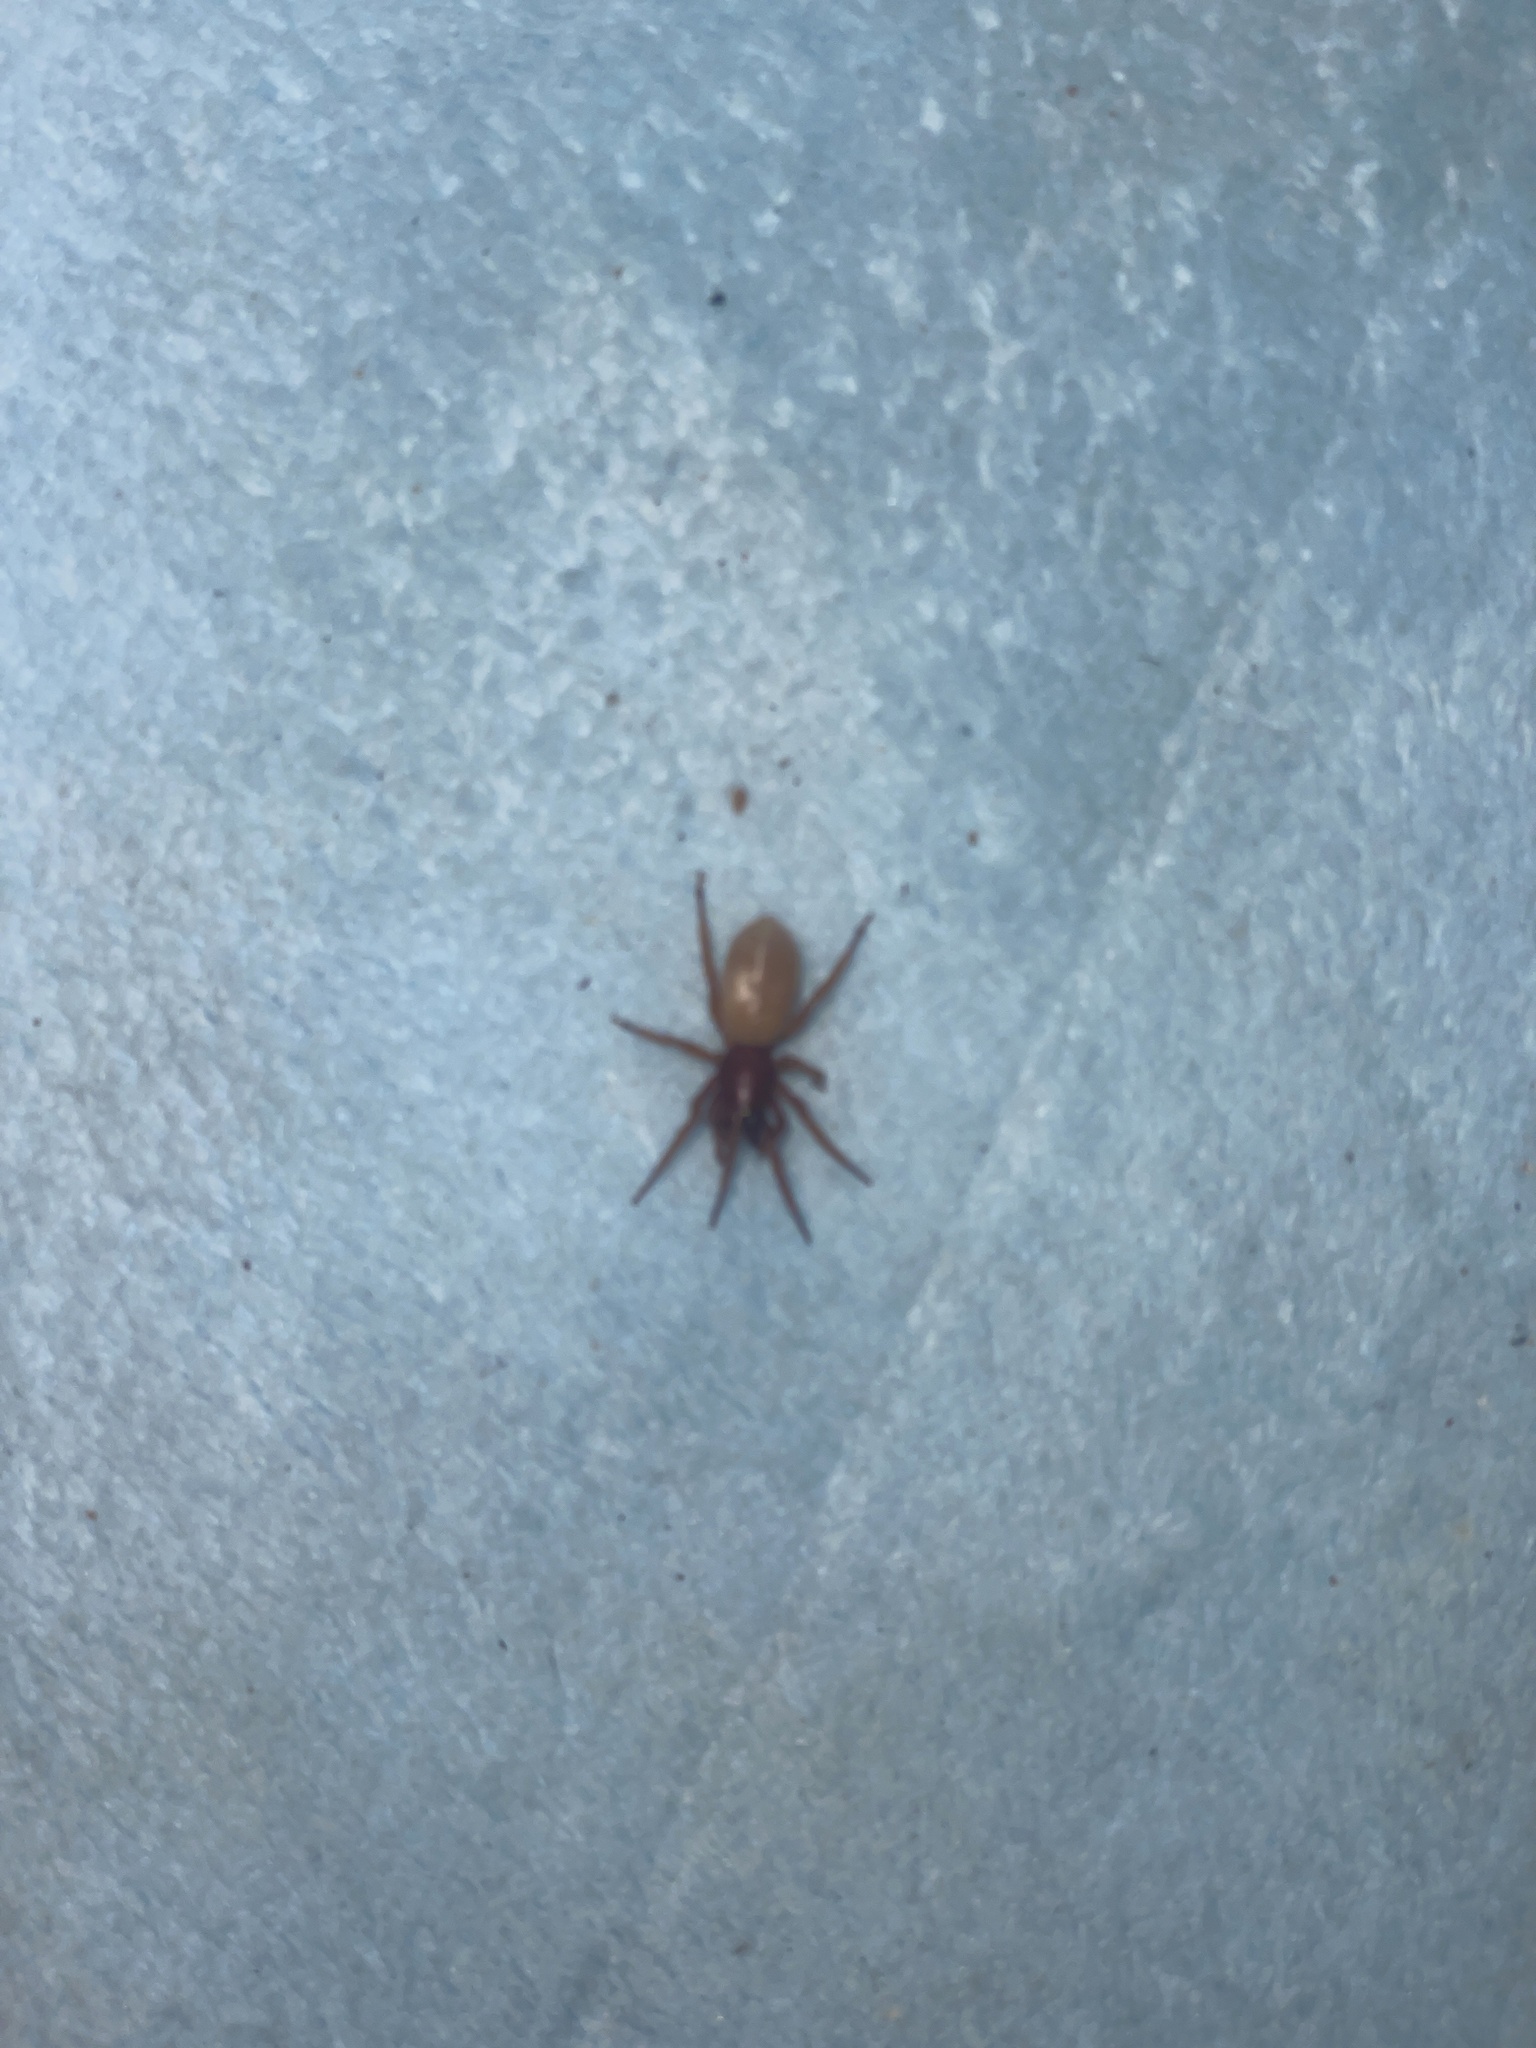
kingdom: Animalia
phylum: Arthropoda
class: Arachnida
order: Araneae
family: Dysderidae
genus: Dysdera
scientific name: Dysdera crocata
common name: Woodlouse spider
